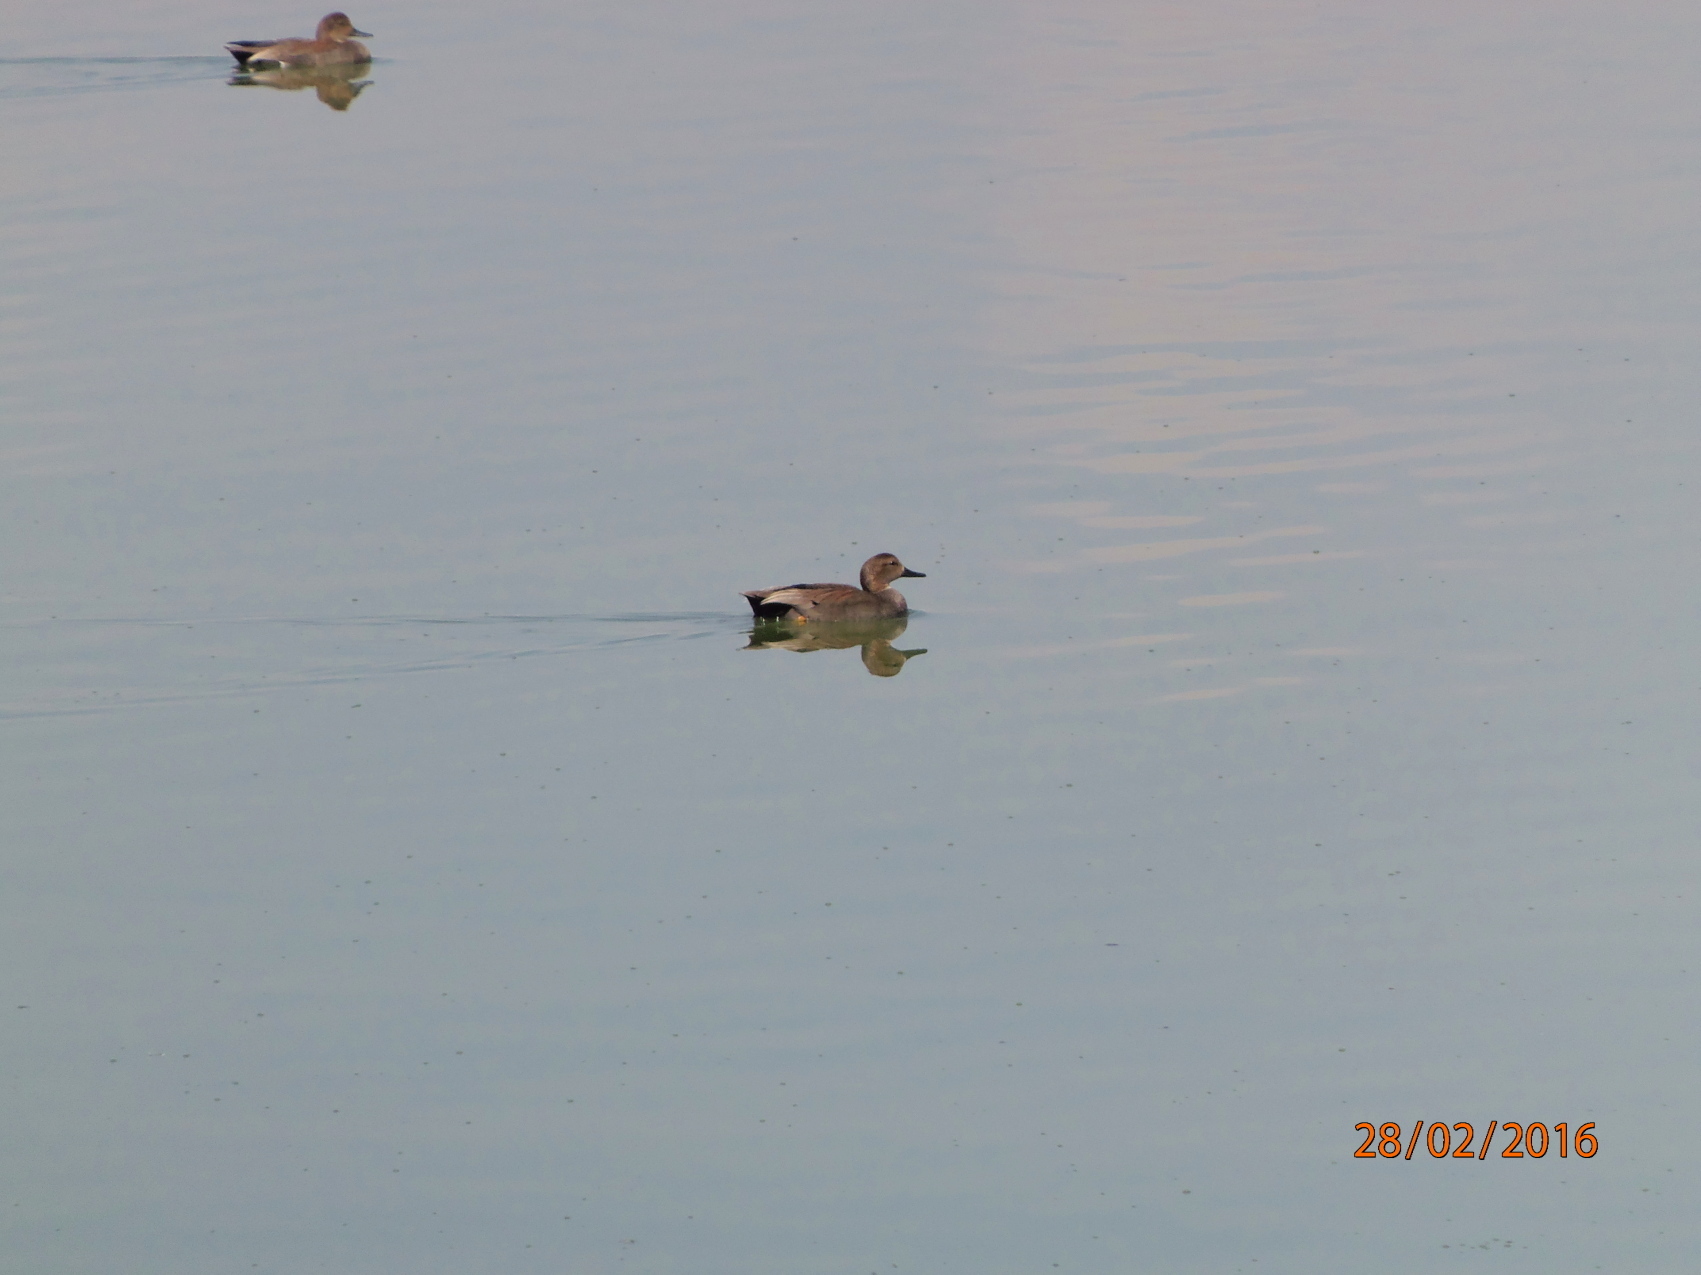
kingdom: Animalia
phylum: Chordata
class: Aves
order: Anseriformes
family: Anatidae
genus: Mareca
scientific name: Mareca strepera
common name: Gadwall
